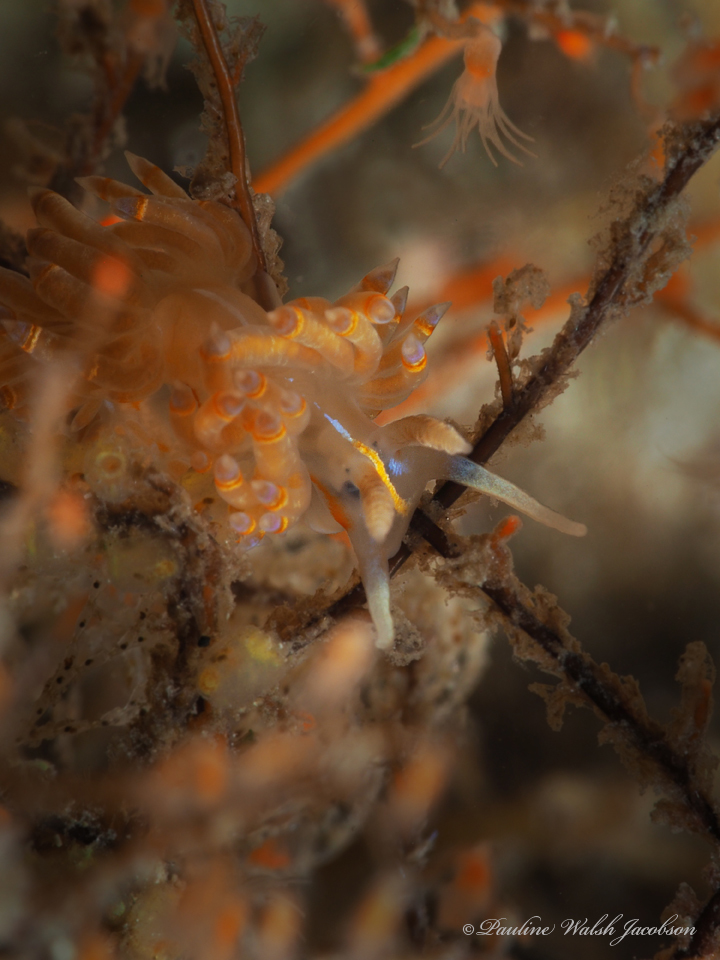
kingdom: Animalia
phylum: Mollusca
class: Gastropoda
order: Nudibranchia
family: Myrrhinidae
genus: Dondice
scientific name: Dondice jupiteriensis
